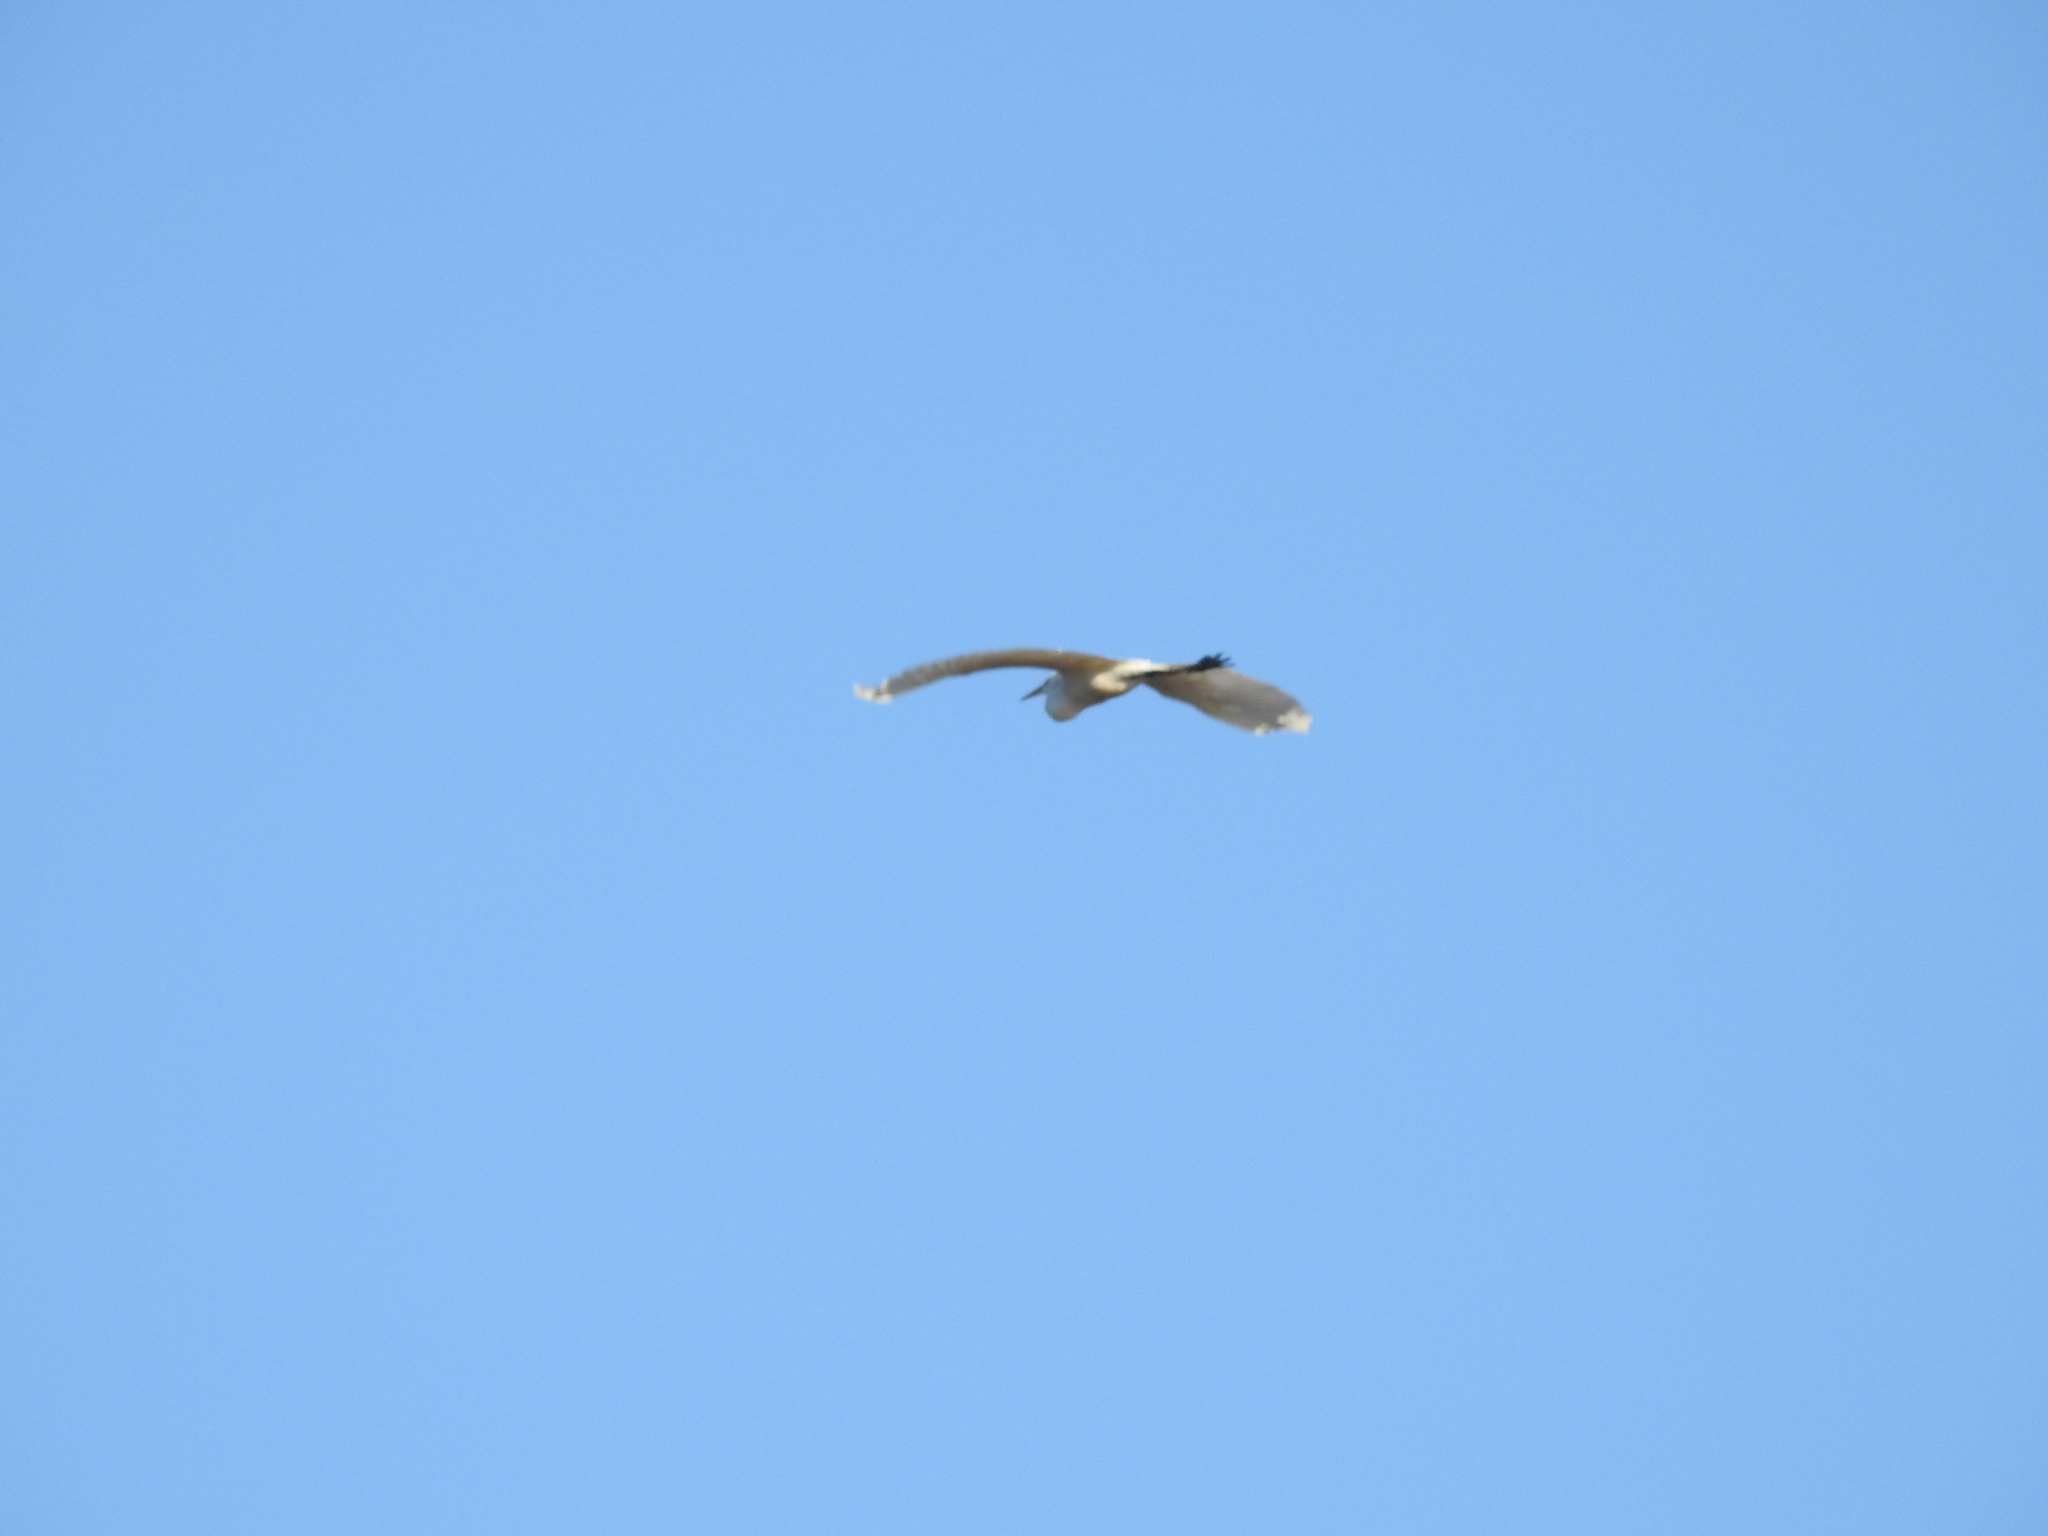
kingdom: Animalia
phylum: Chordata
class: Aves
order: Pelecaniformes
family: Ardeidae
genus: Ardea
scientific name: Ardea alba
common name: Great egret
